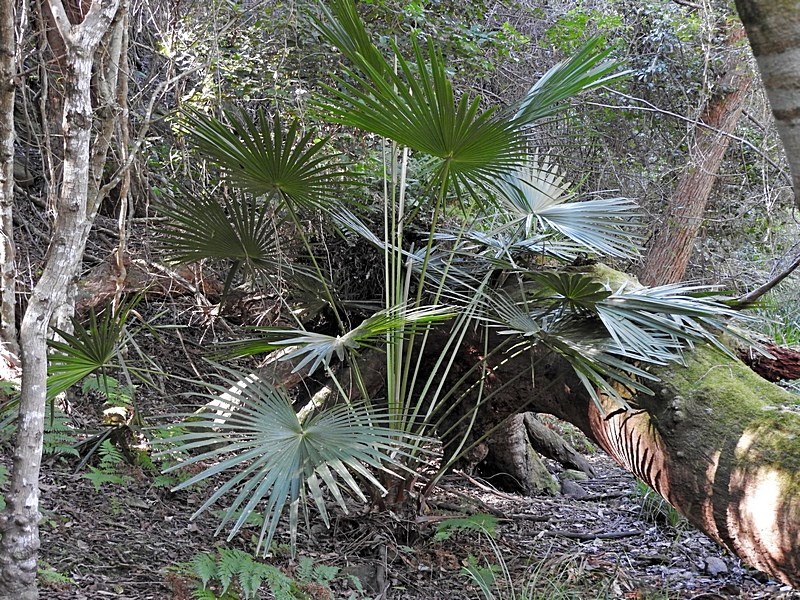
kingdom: Plantae
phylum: Tracheophyta
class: Liliopsida
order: Arecales
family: Arecaceae
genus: Livistona
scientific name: Livistona australis
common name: Cabbage fan palm
